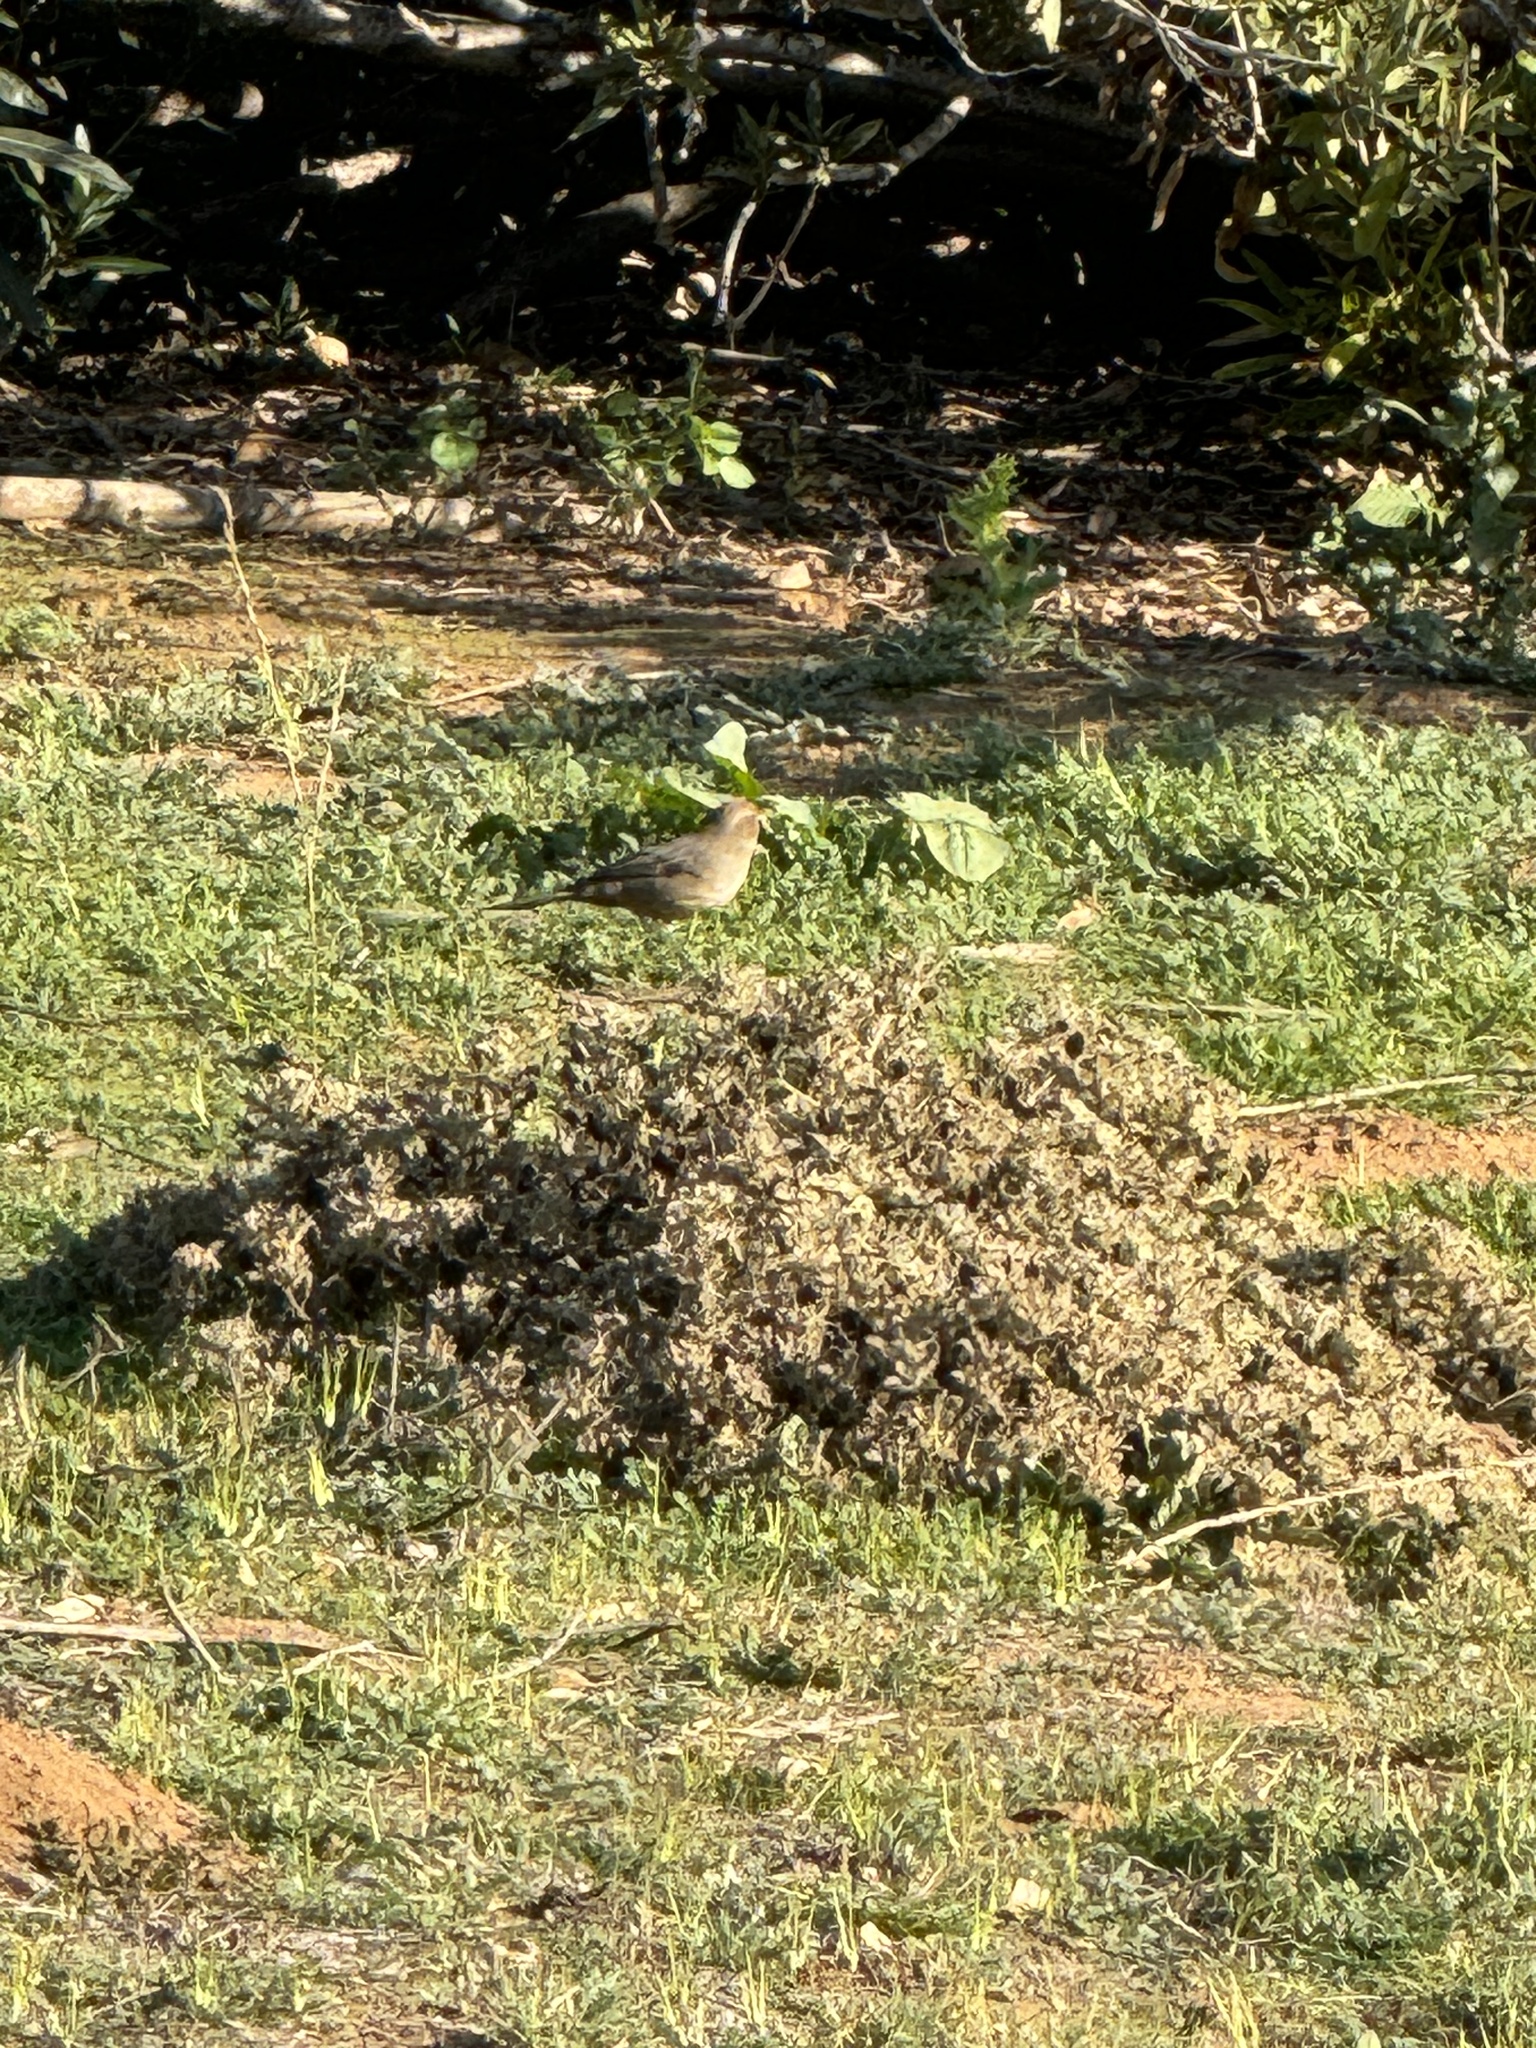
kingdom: Animalia
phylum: Chordata
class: Aves
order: Passeriformes
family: Passerellidae
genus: Melozone
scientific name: Melozone crissalis
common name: California towhee
